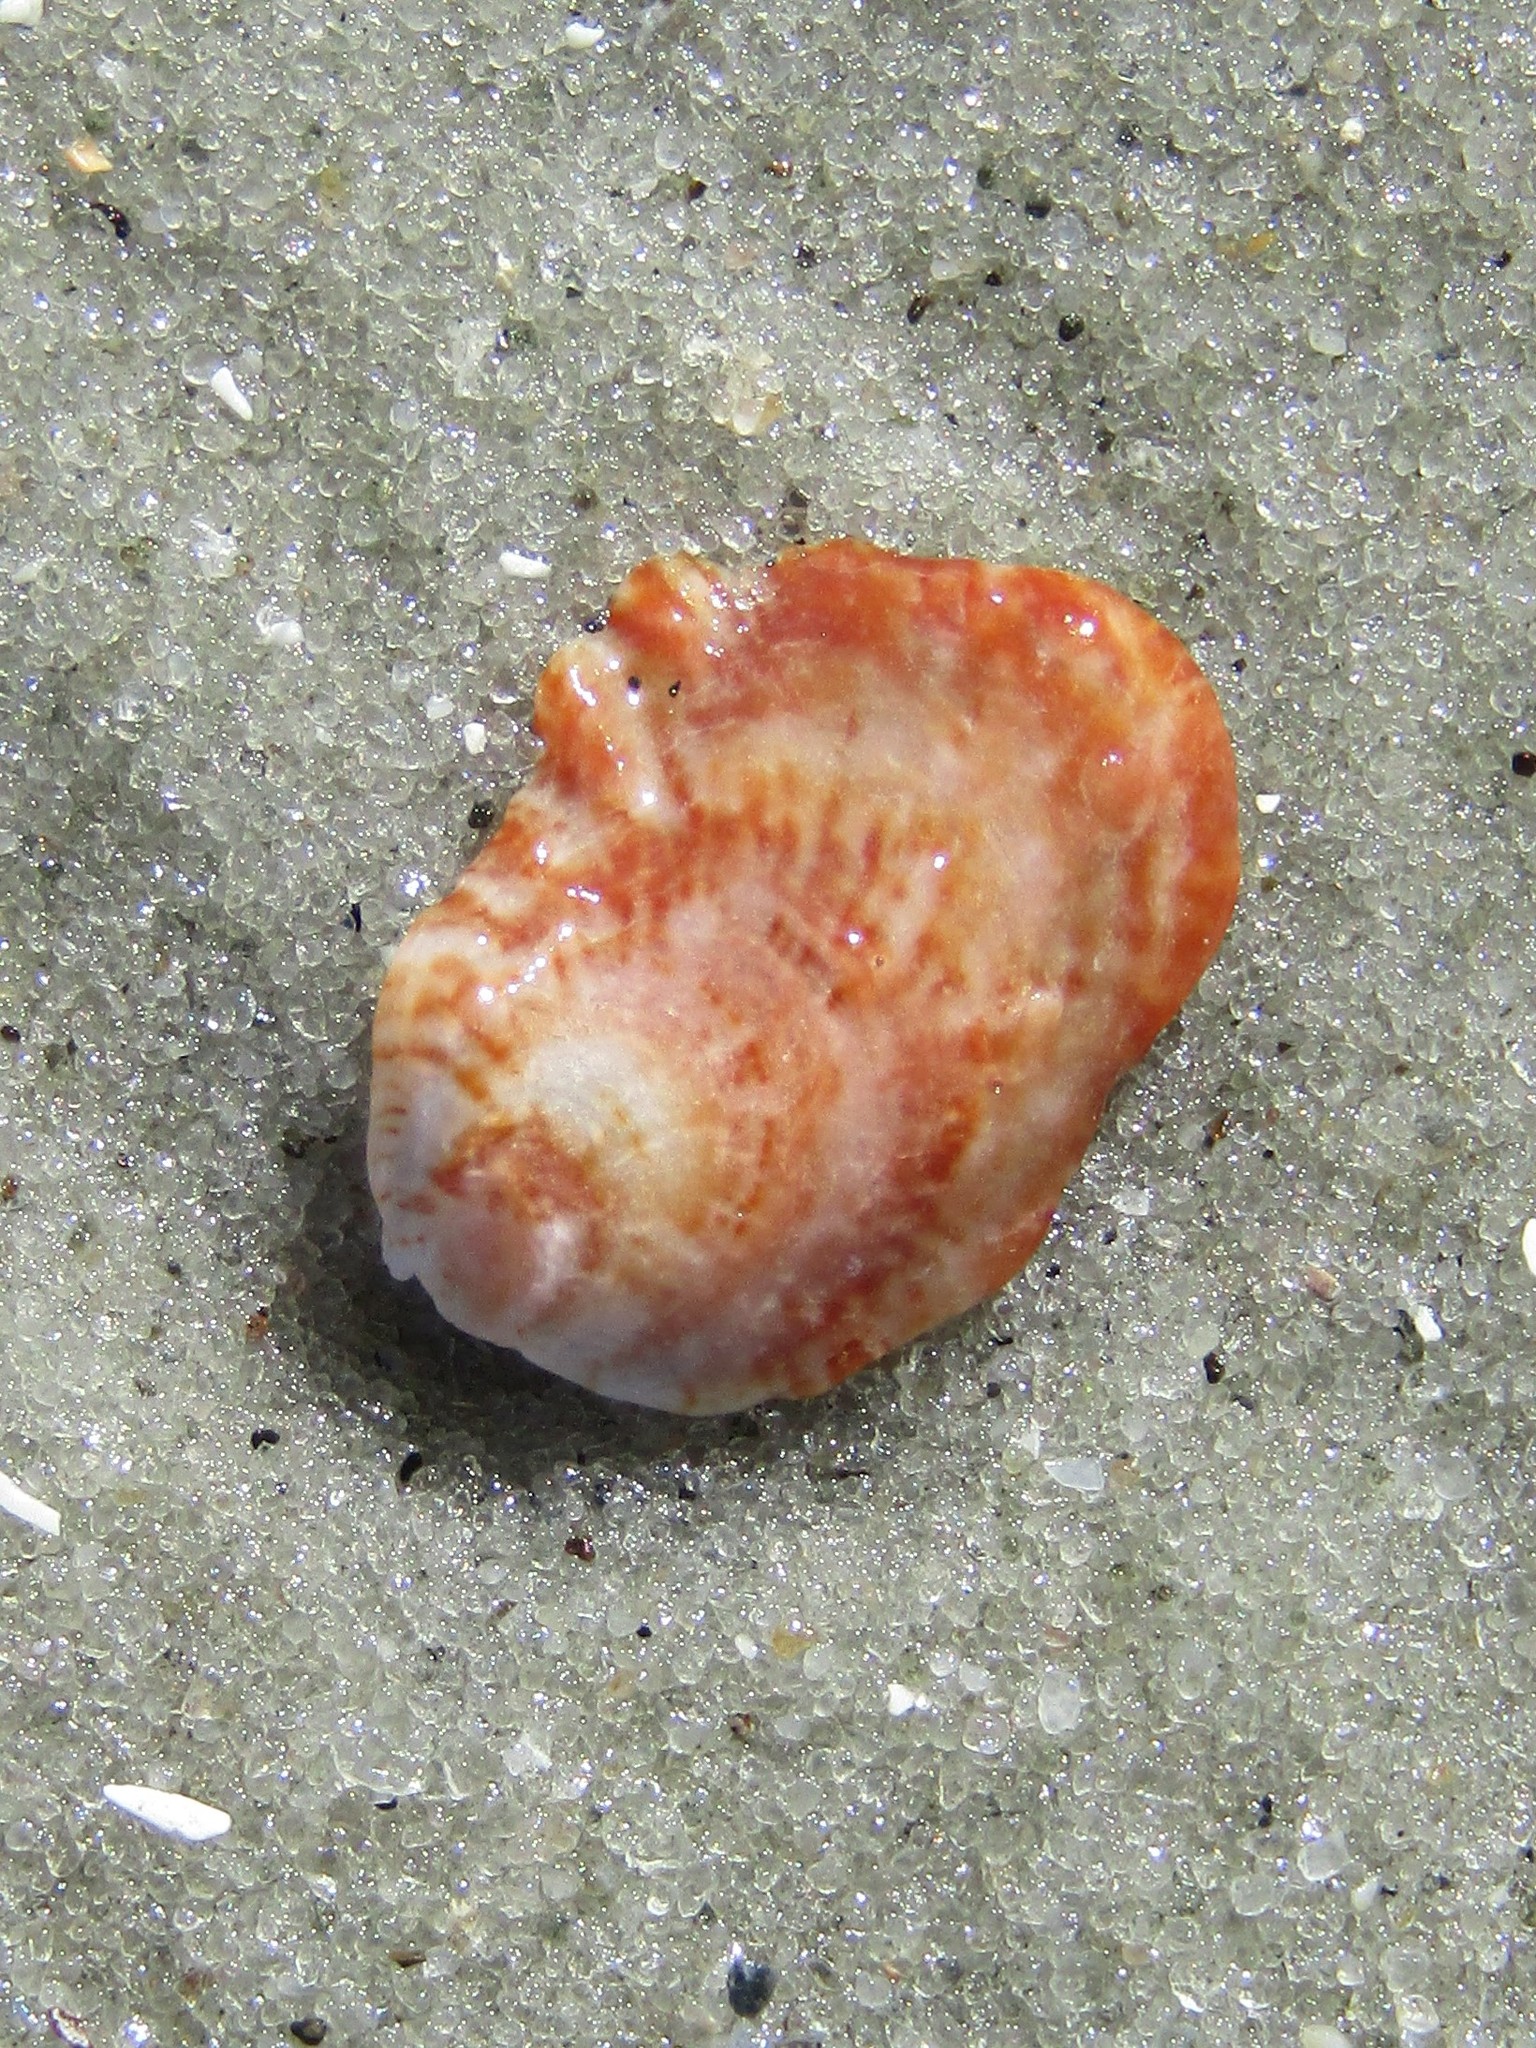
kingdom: Animalia
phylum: Mollusca
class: Bivalvia
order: Venerida
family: Chamidae
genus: Chama
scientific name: Chama congregata
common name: Corrugate jewelbox
